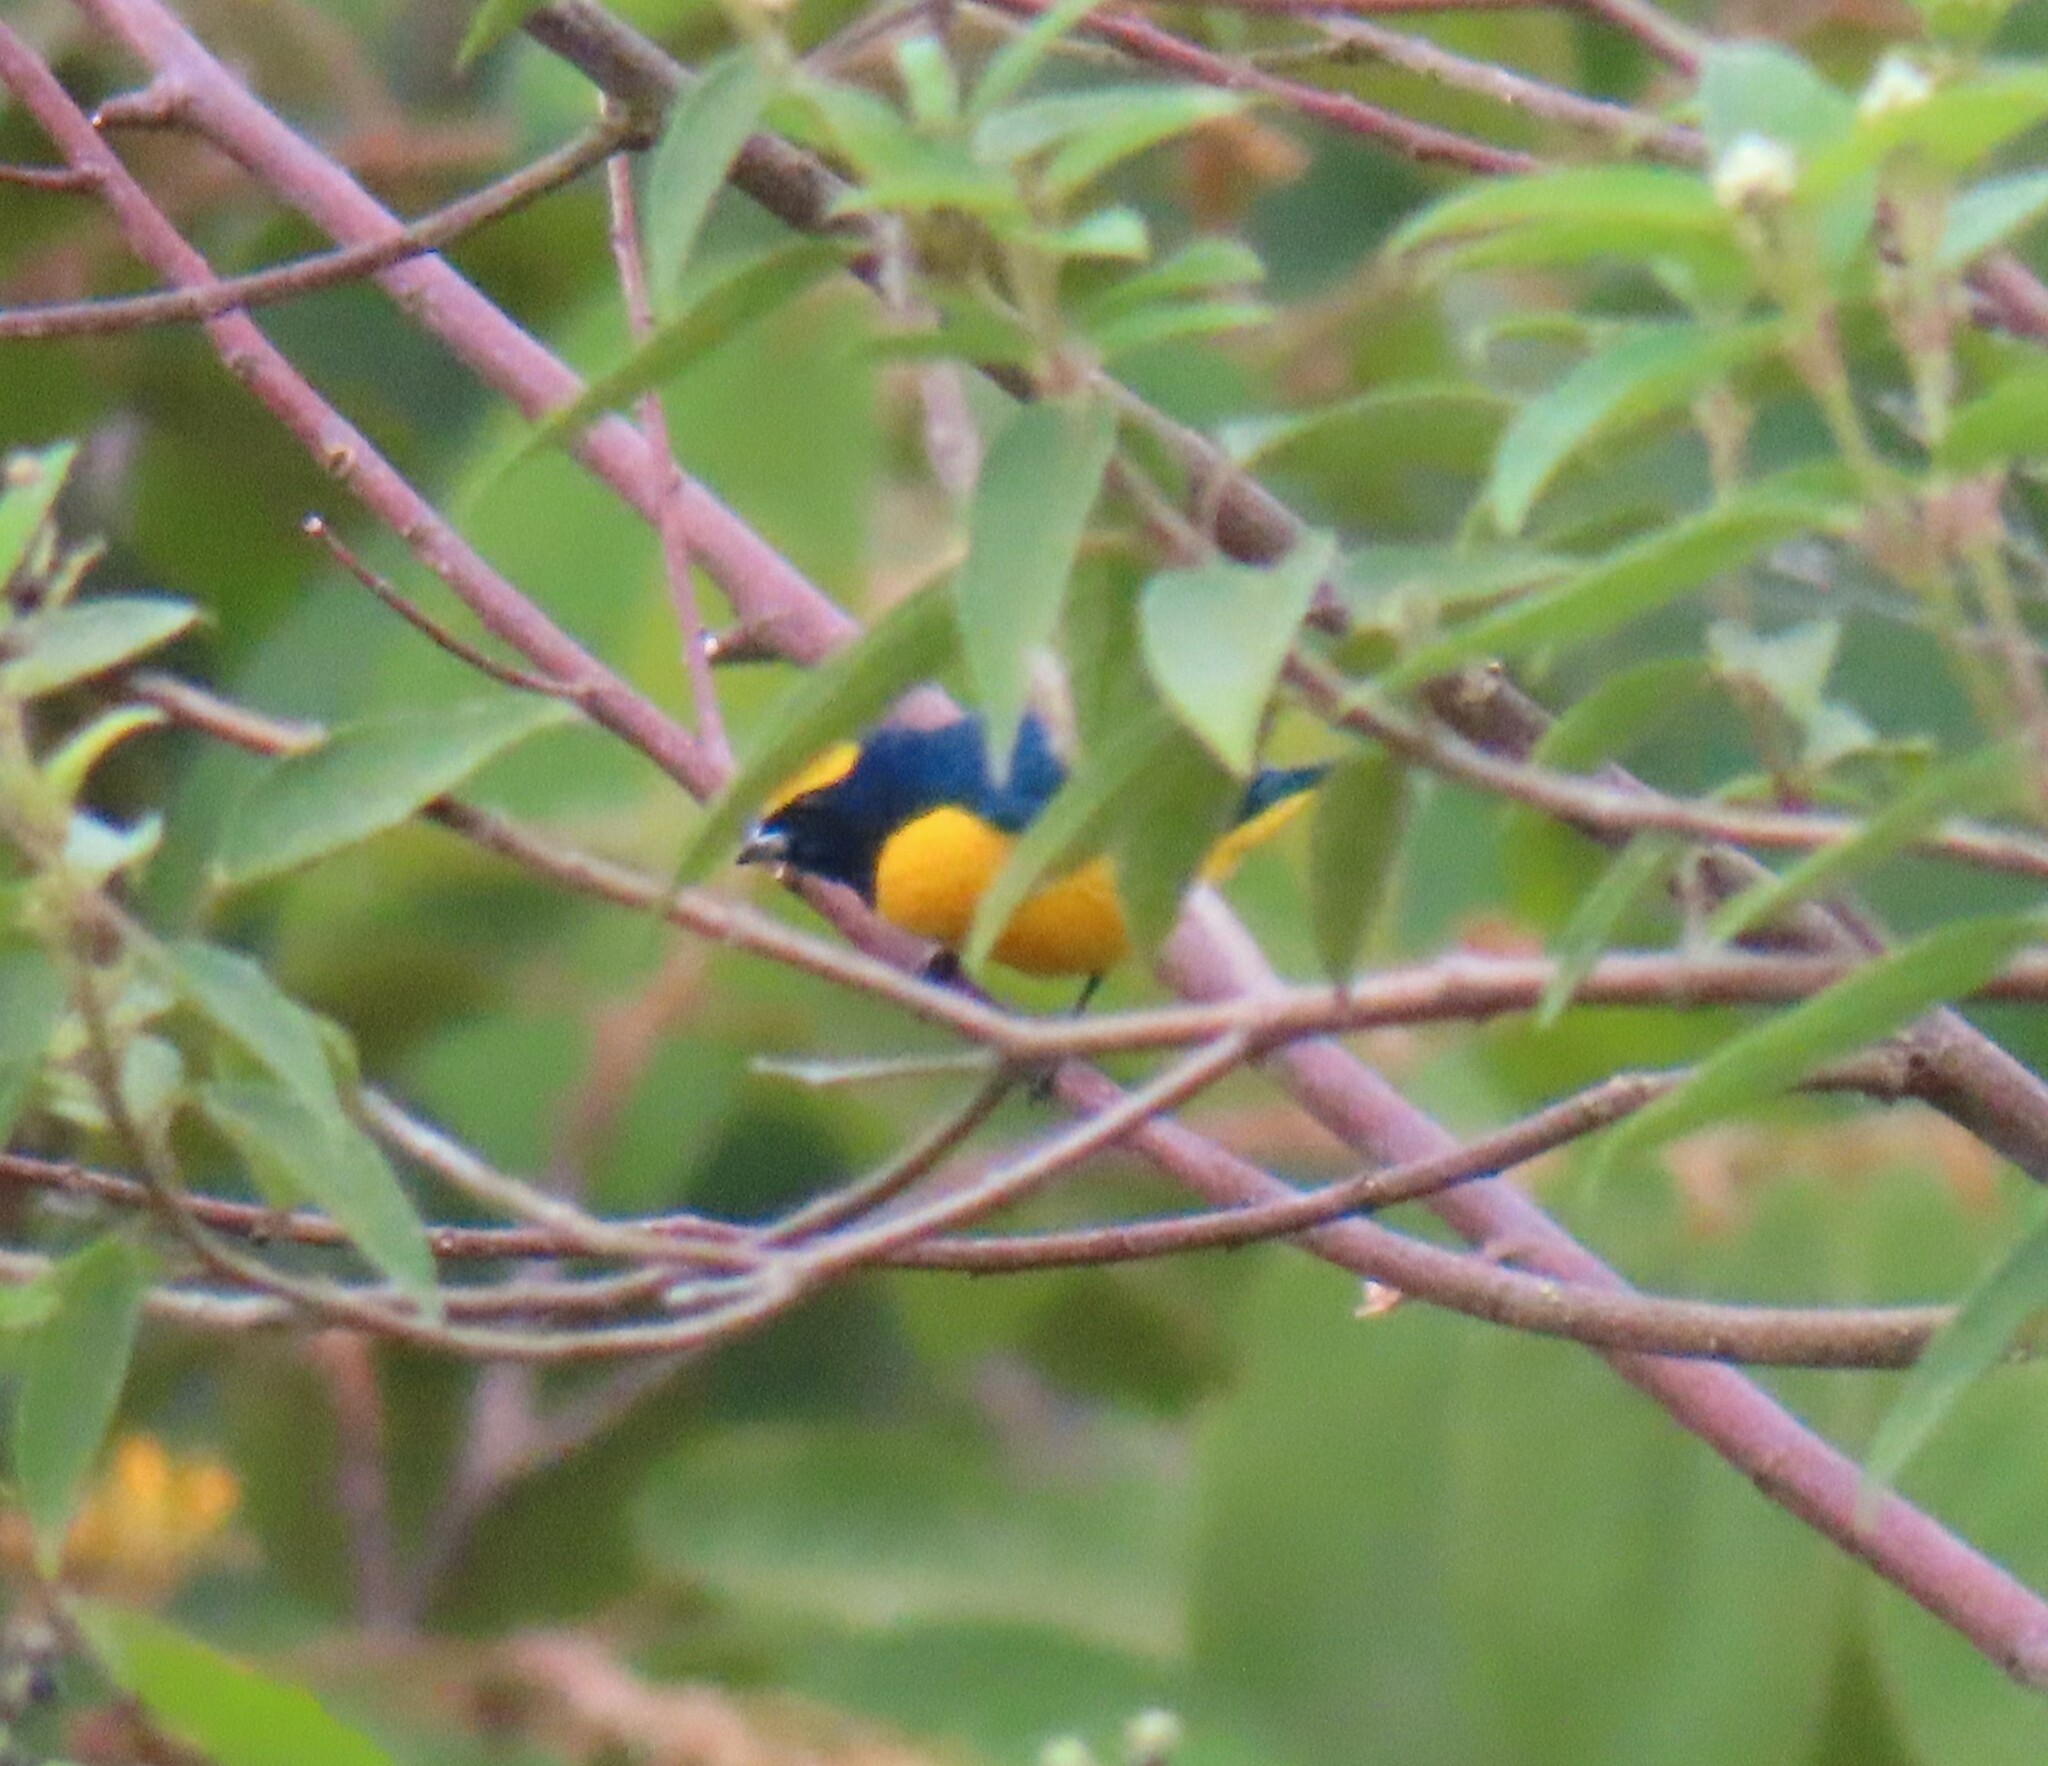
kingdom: Animalia
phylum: Chordata
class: Aves
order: Passeriformes
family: Fringillidae
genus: Euphonia
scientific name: Euphonia luteicapilla
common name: Yellow-crowned euphonia
